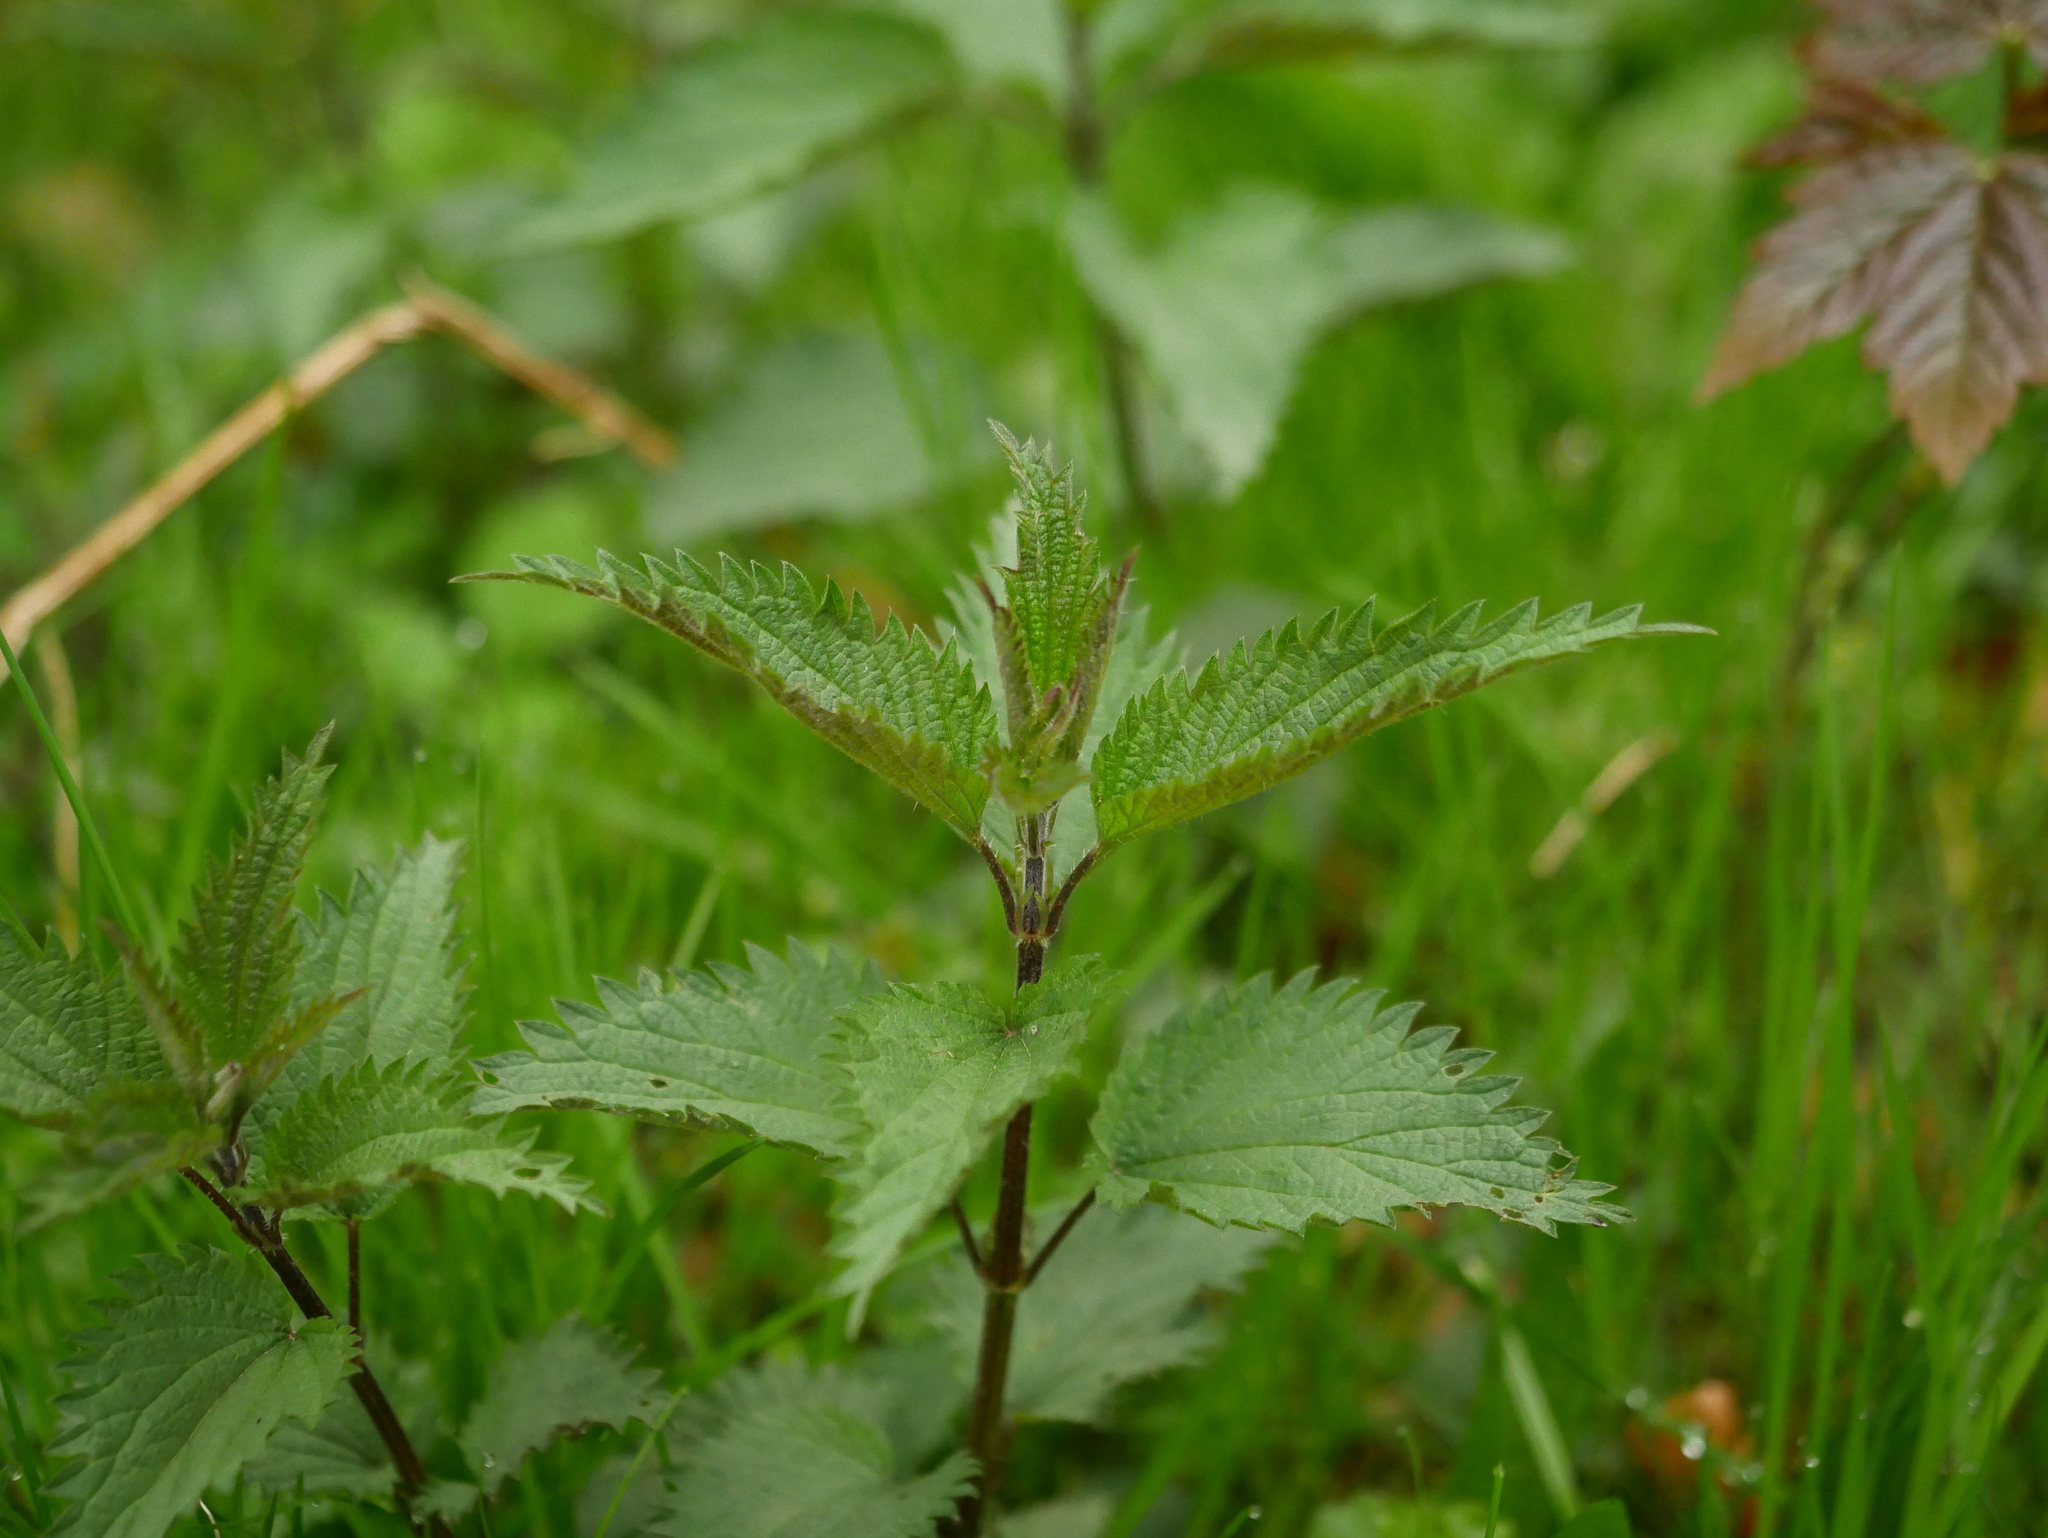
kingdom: Plantae
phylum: Tracheophyta
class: Magnoliopsida
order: Rosales
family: Urticaceae
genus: Urtica
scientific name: Urtica dioica
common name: Common nettle
